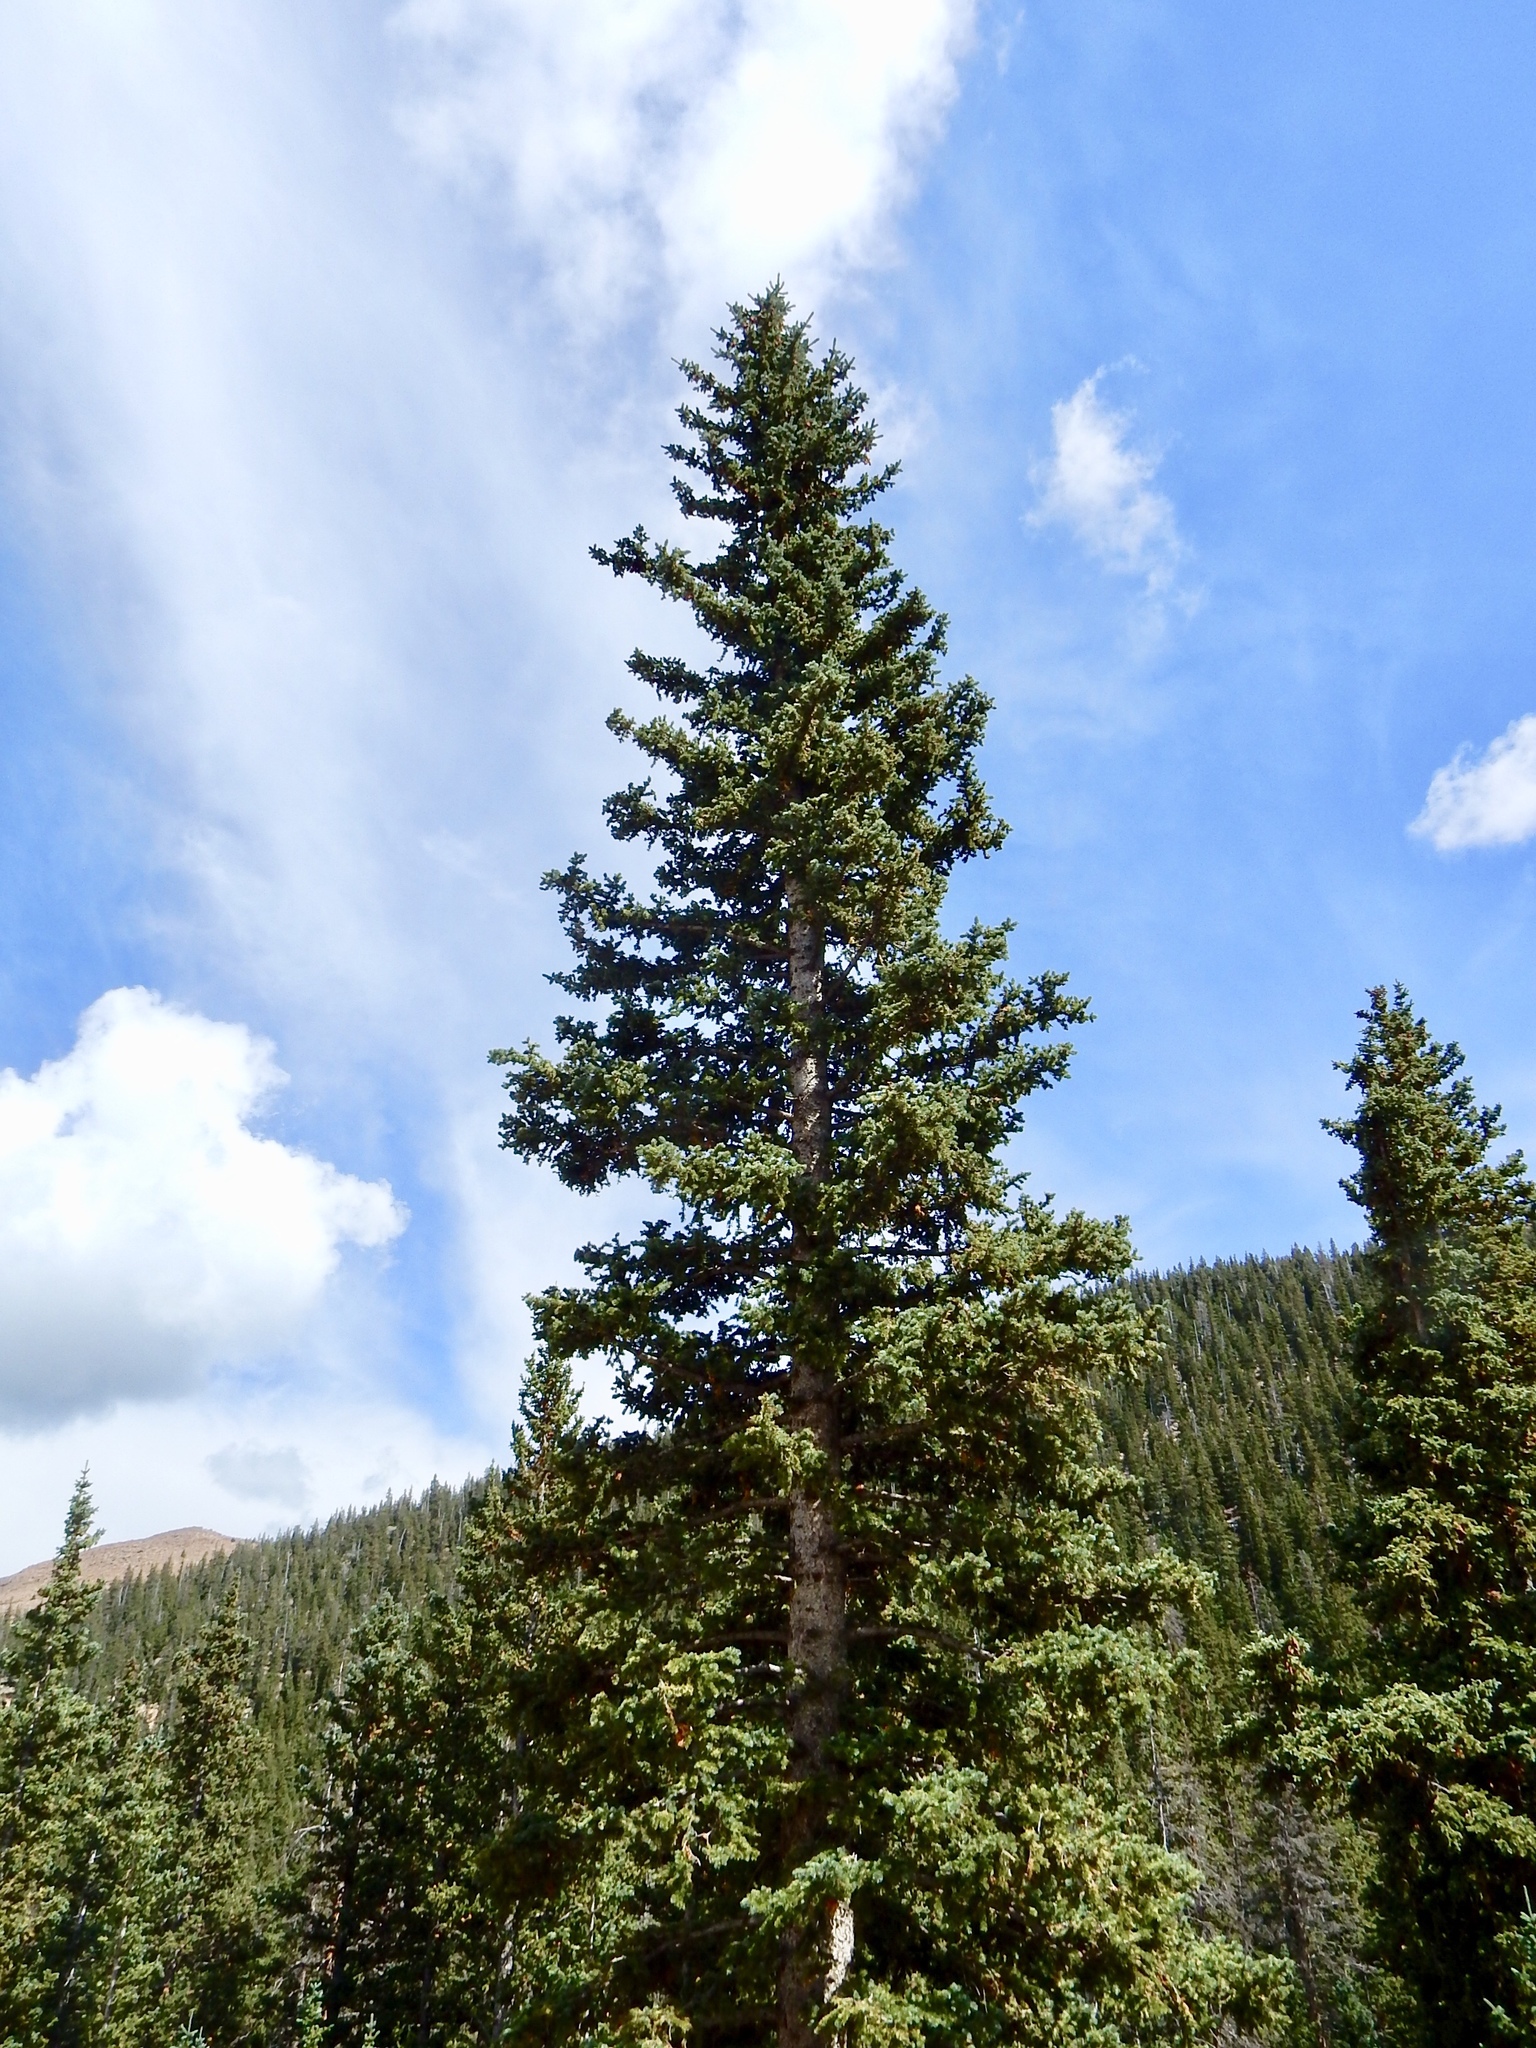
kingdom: Plantae
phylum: Tracheophyta
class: Pinopsida
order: Pinales
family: Pinaceae
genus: Picea
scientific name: Picea engelmannii
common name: Engelmann spruce
